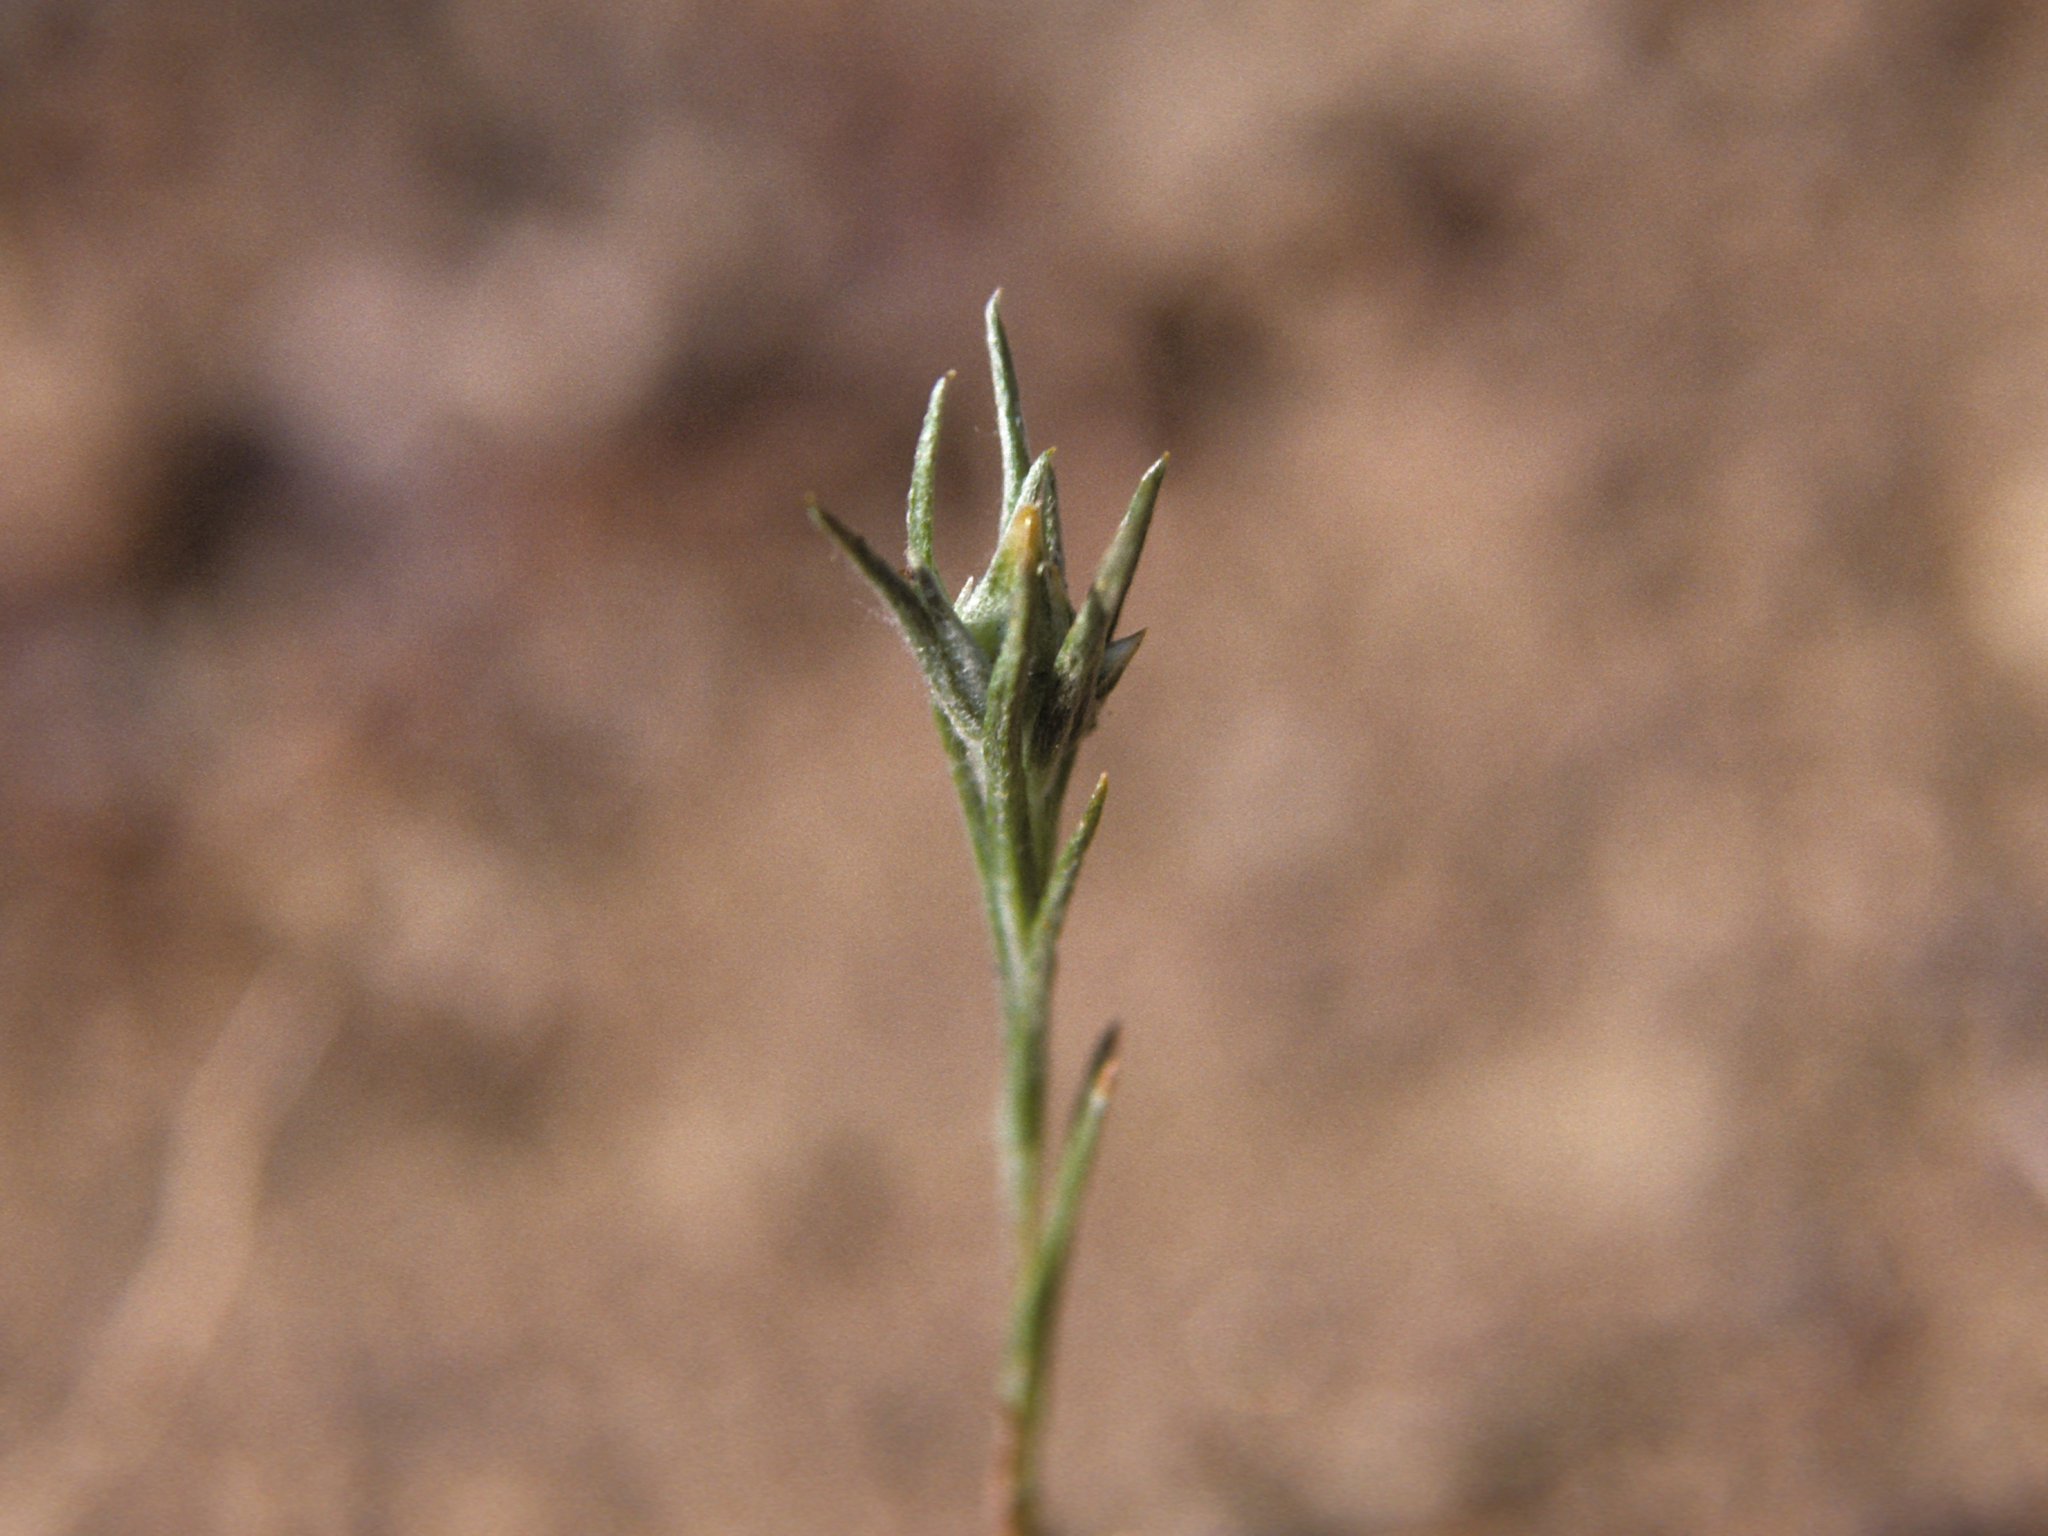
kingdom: Plantae
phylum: Tracheophyta
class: Magnoliopsida
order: Asterales
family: Asteraceae
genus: Logfia
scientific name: Logfia gallica
